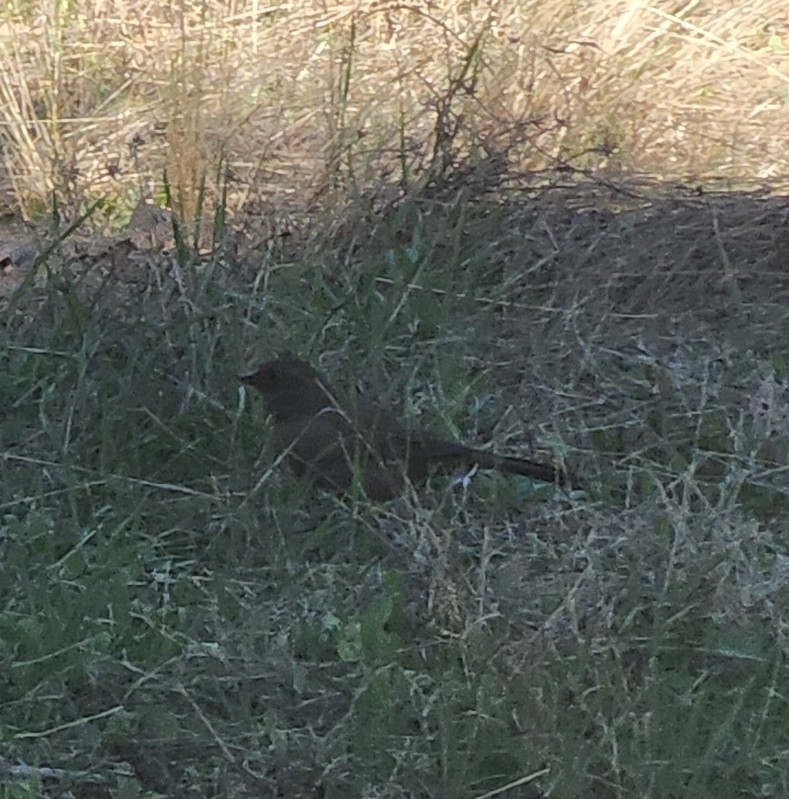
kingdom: Animalia
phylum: Chordata
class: Aves
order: Passeriformes
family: Passerellidae
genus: Melozone
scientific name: Melozone crissalis
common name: California towhee
